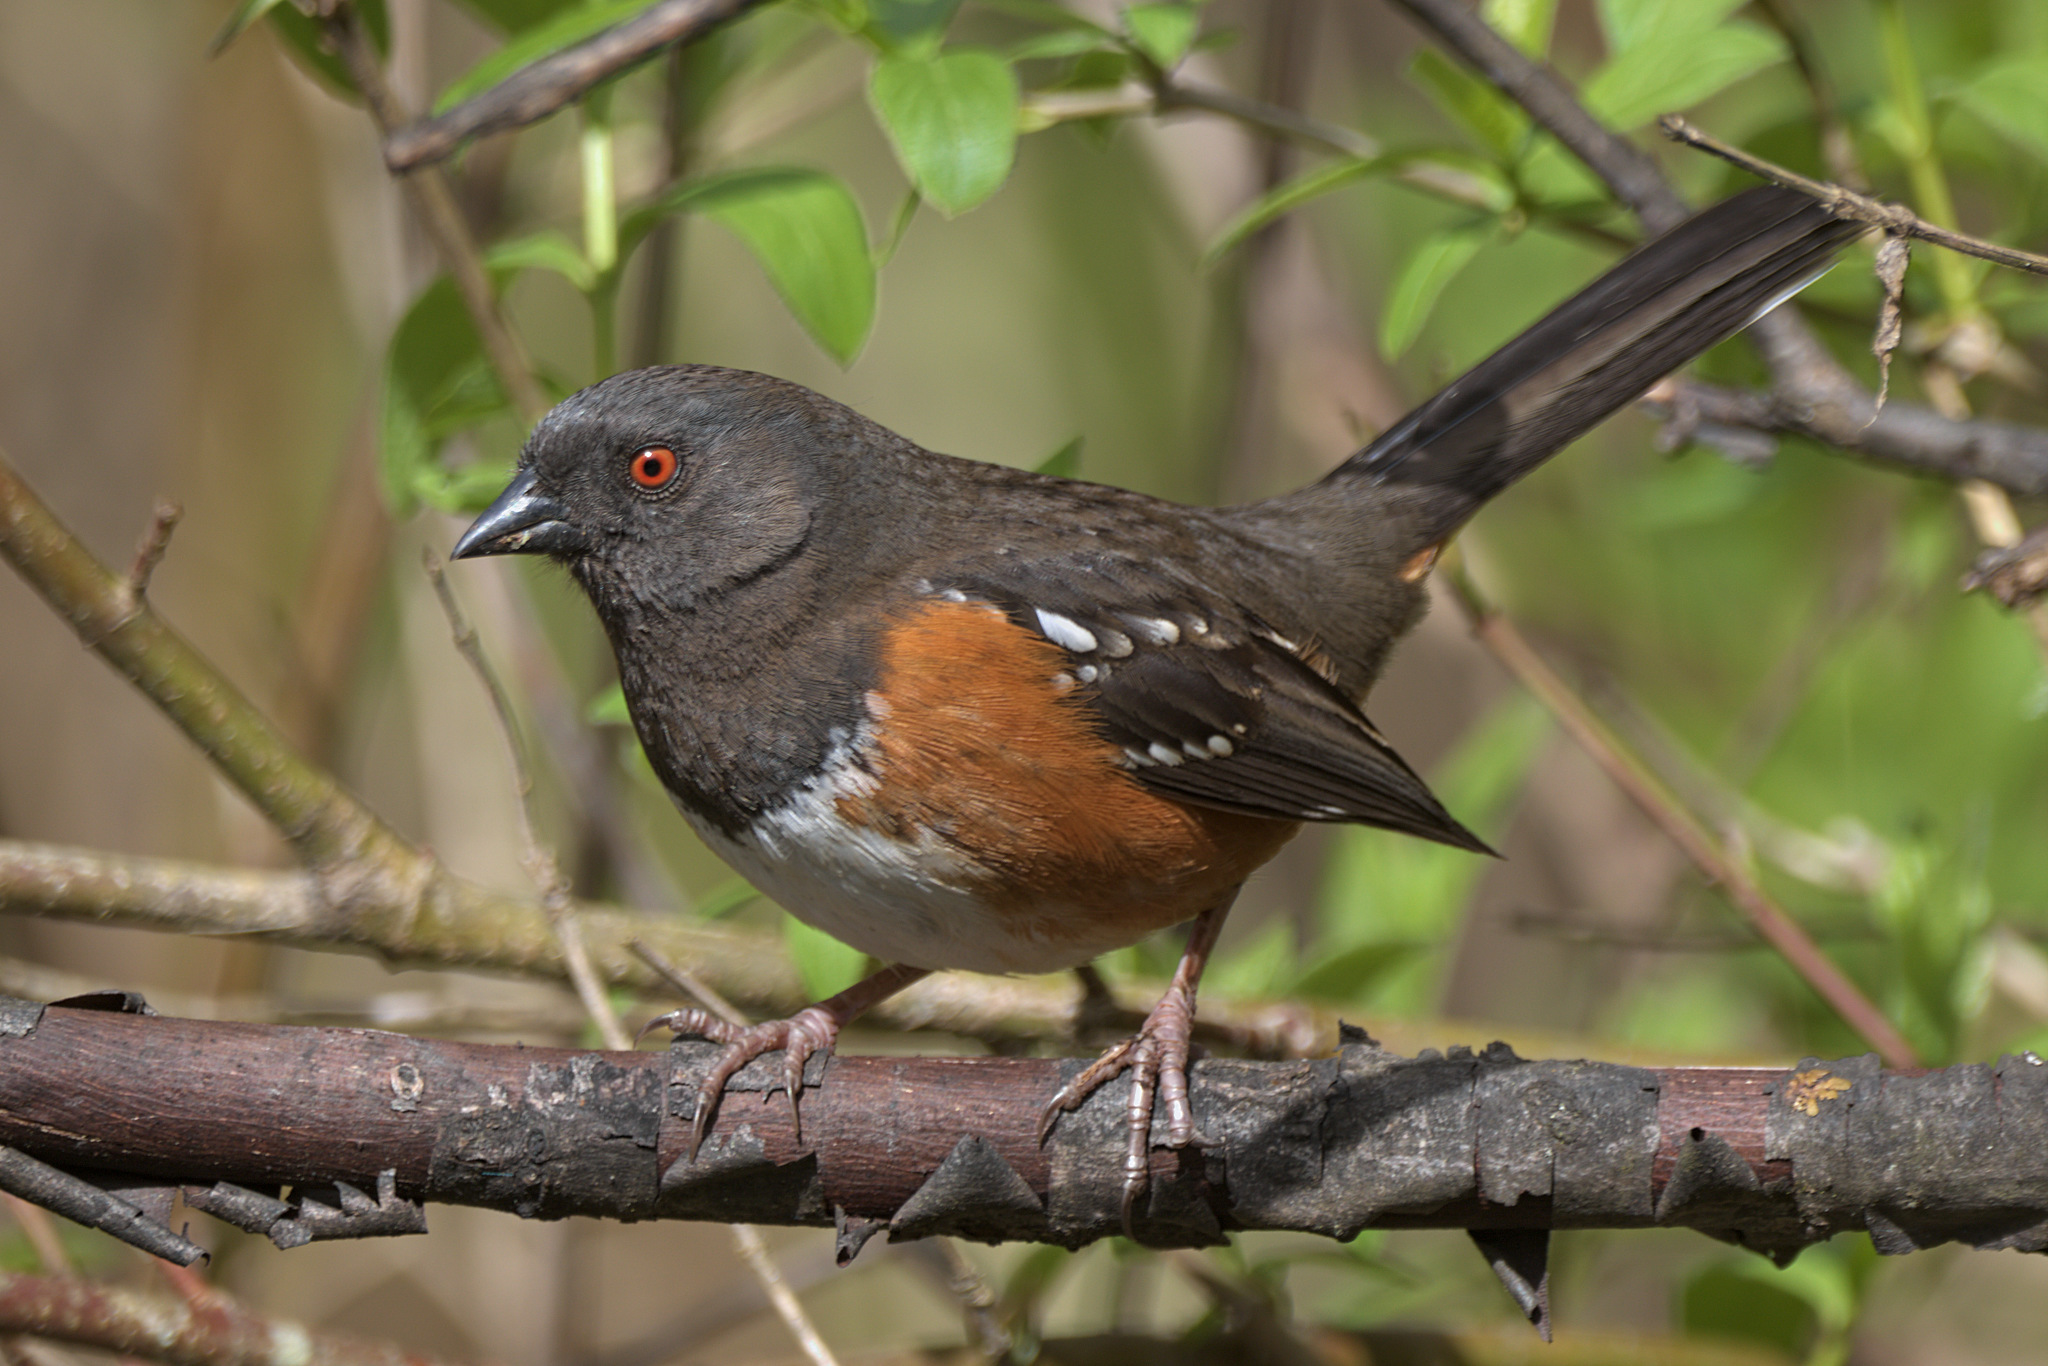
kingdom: Animalia
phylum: Chordata
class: Aves
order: Passeriformes
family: Passerellidae
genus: Pipilo
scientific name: Pipilo maculatus
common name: Spotted towhee
